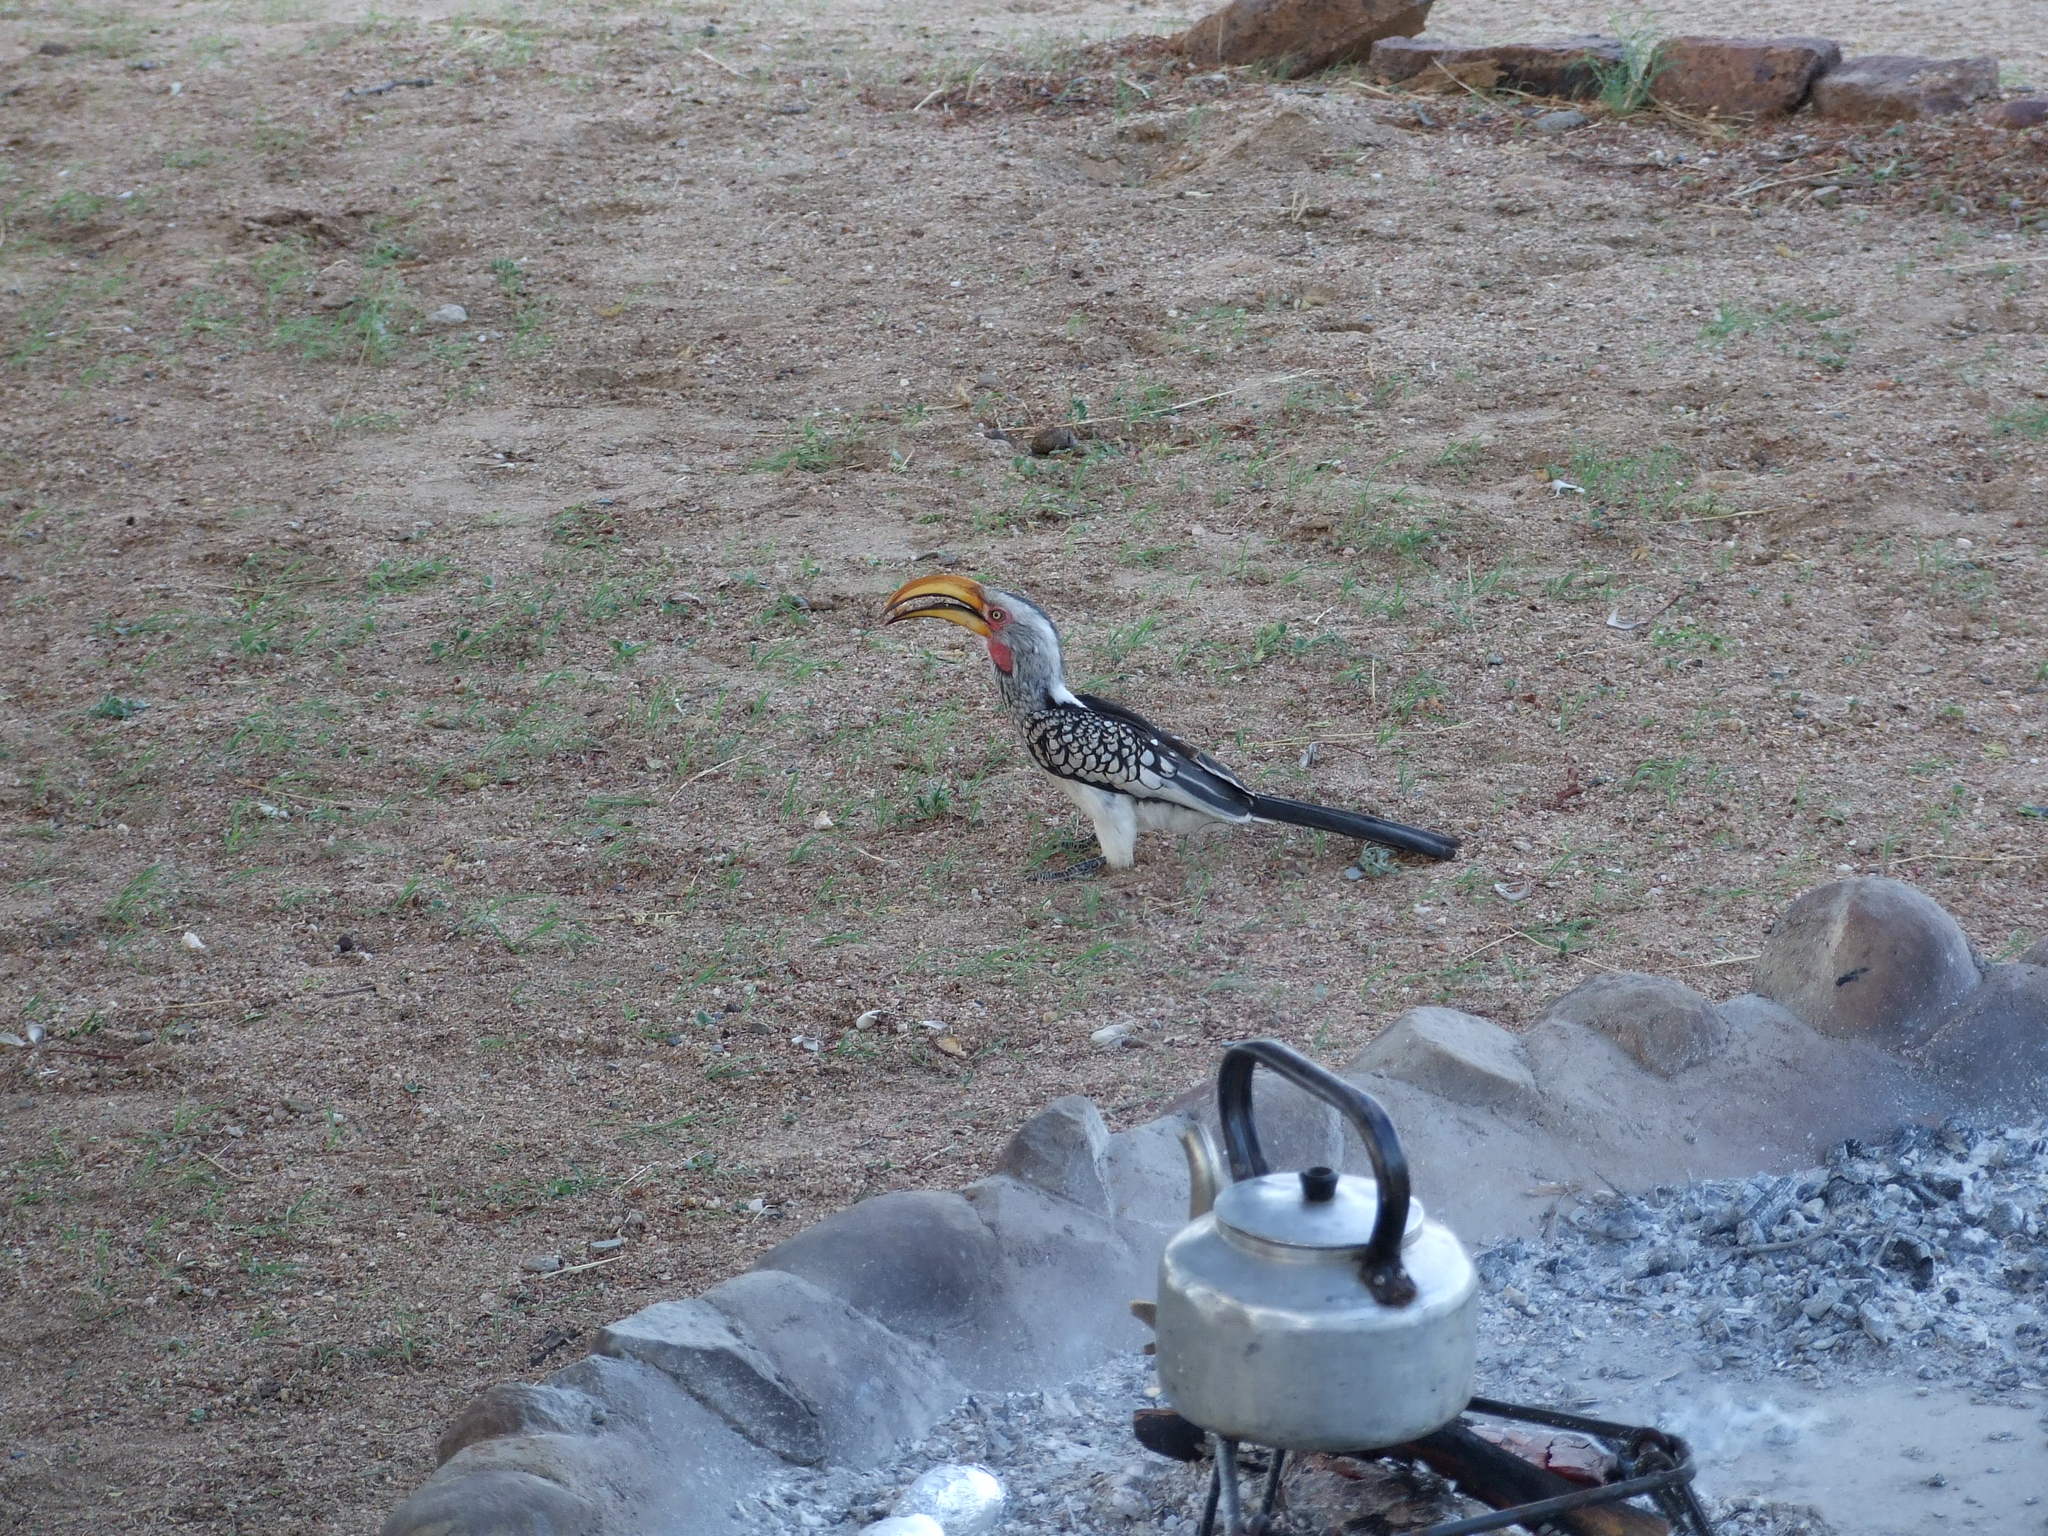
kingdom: Animalia
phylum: Chordata
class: Aves
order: Bucerotiformes
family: Bucerotidae
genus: Tockus
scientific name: Tockus leucomelas
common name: Southern yellow-billed hornbill
